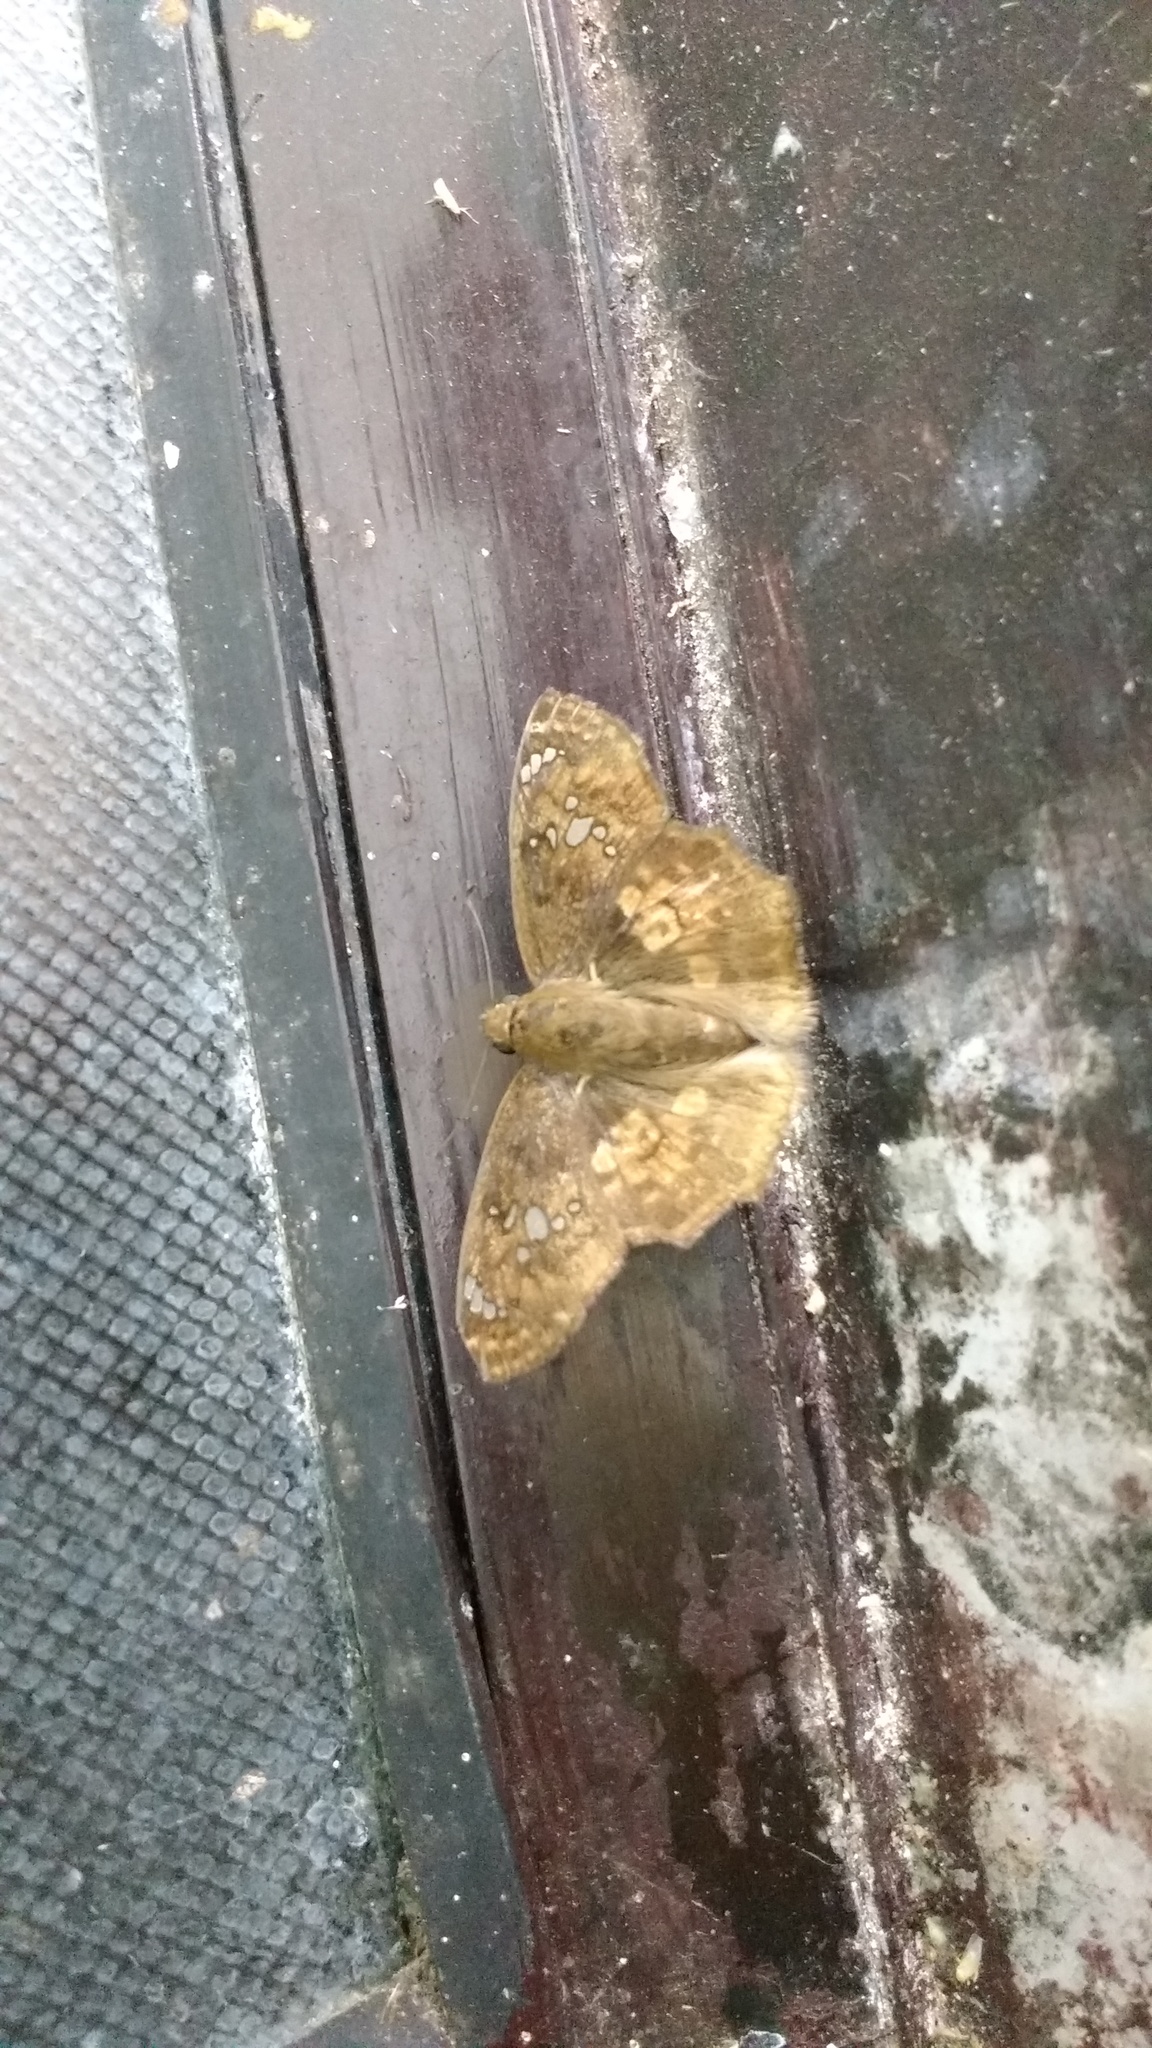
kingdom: Animalia
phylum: Arthropoda
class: Insecta
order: Lepidoptera
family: Hesperiidae
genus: Caprona
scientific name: Caprona ransonnettii
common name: Golden angle
